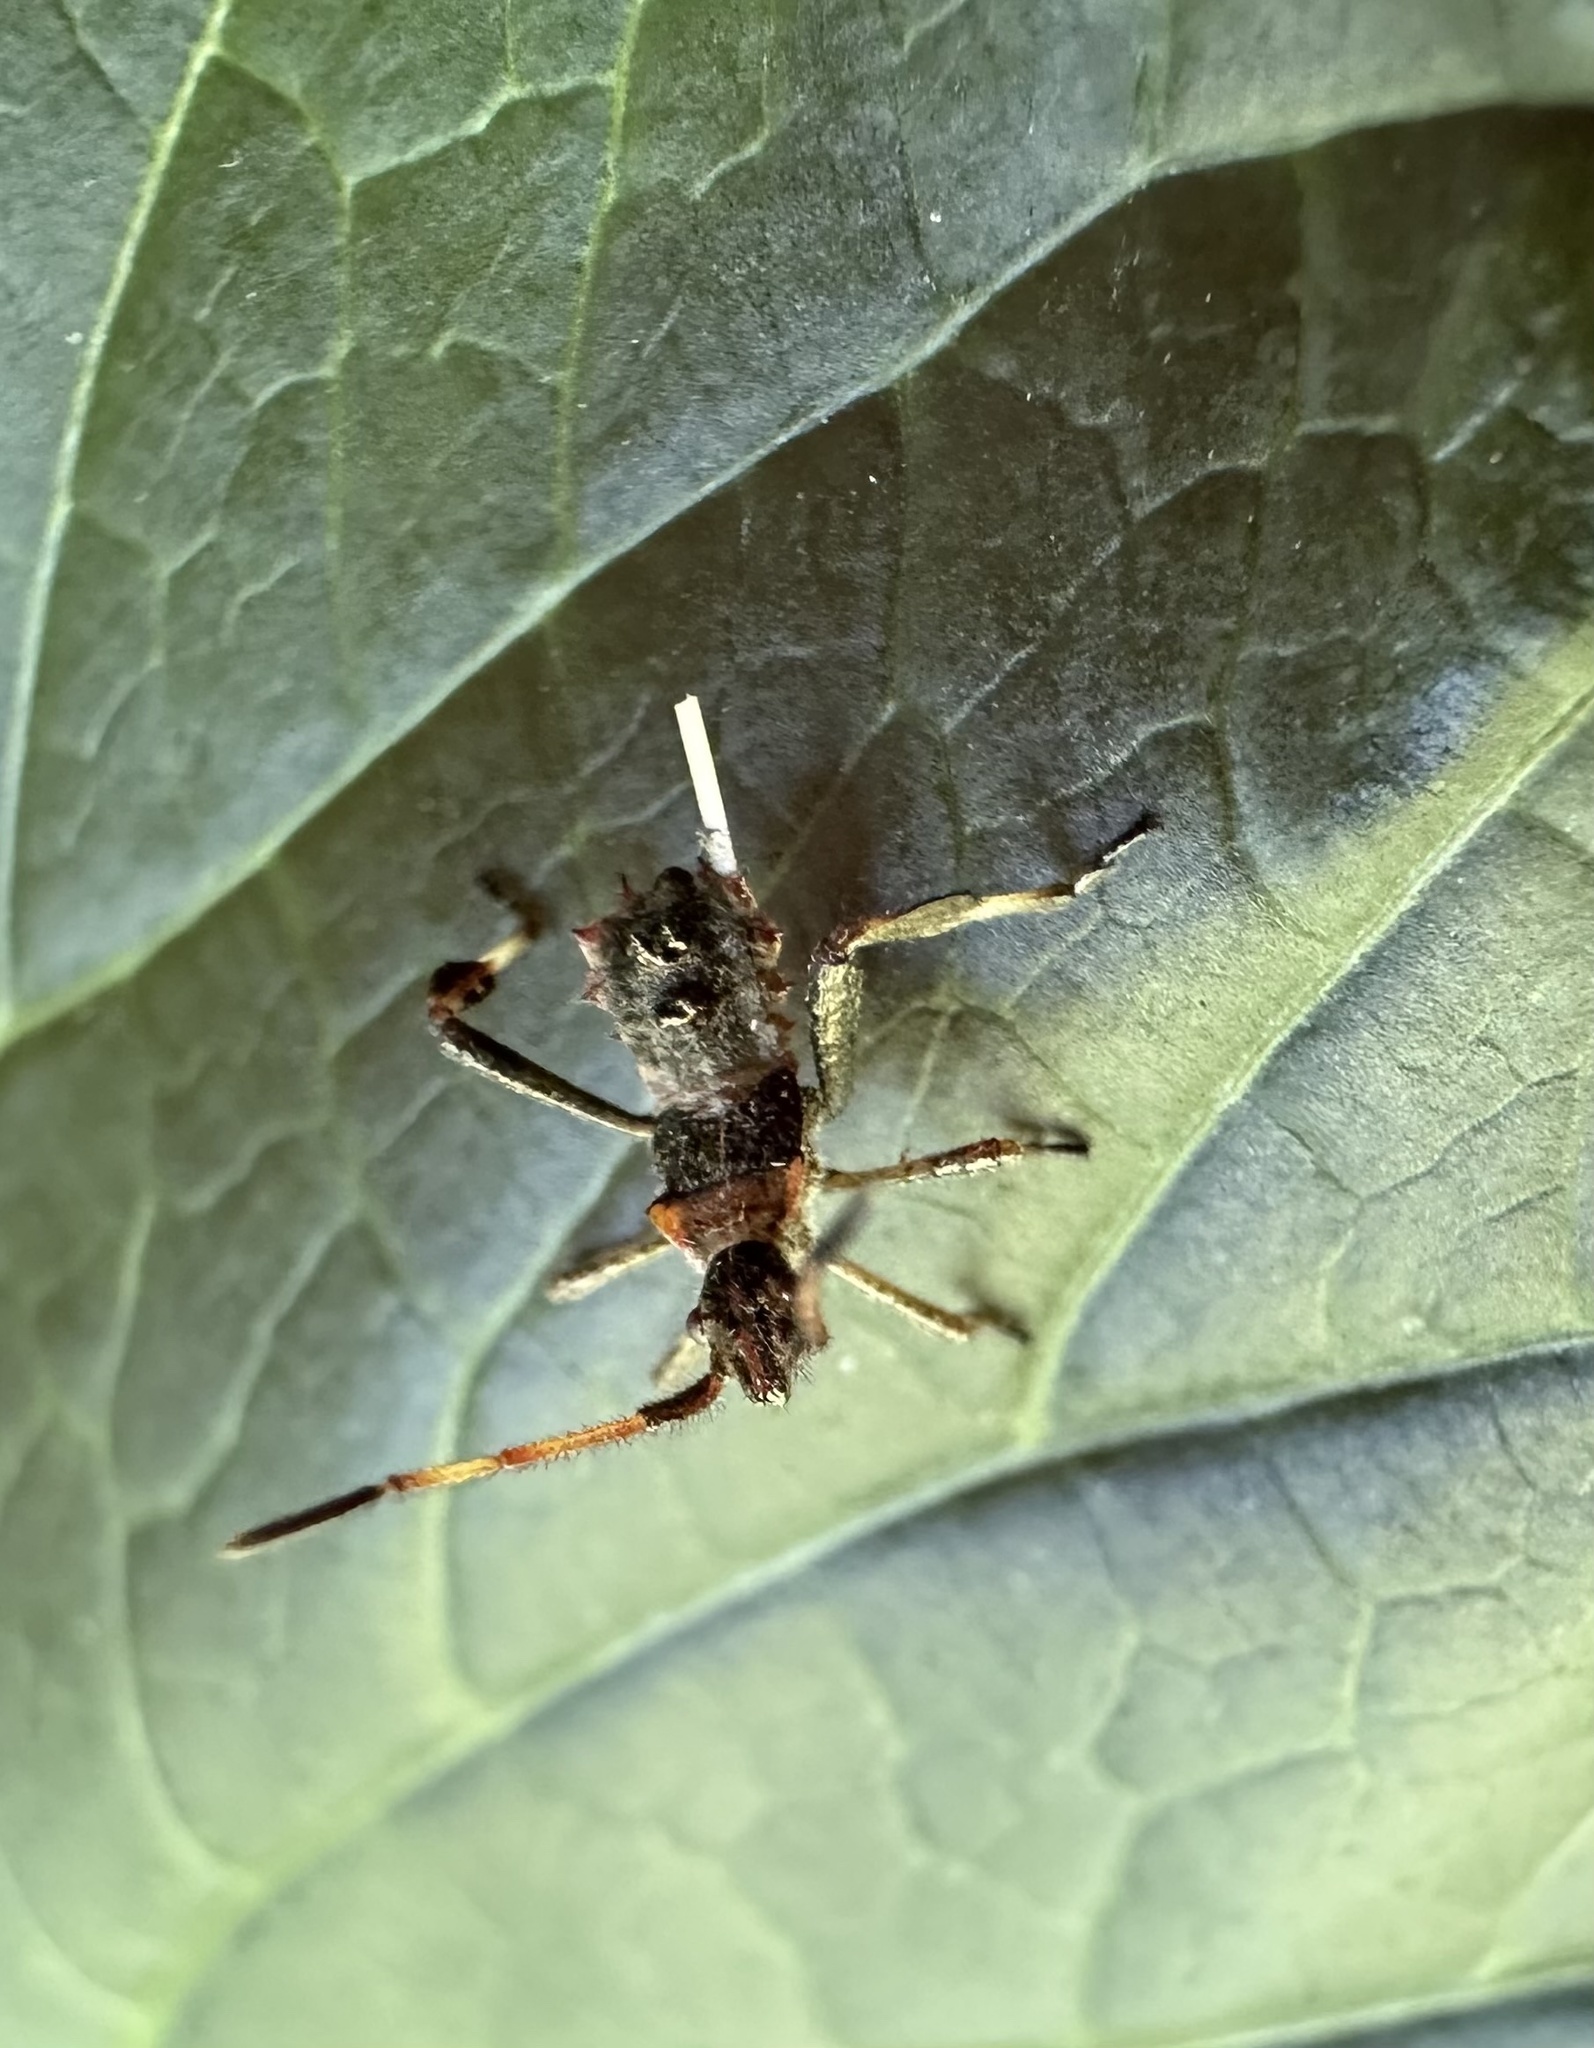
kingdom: Animalia
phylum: Arthropoda
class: Insecta
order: Hemiptera
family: Coreidae
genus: Leptoglossus
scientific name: Leptoglossus chilensis
